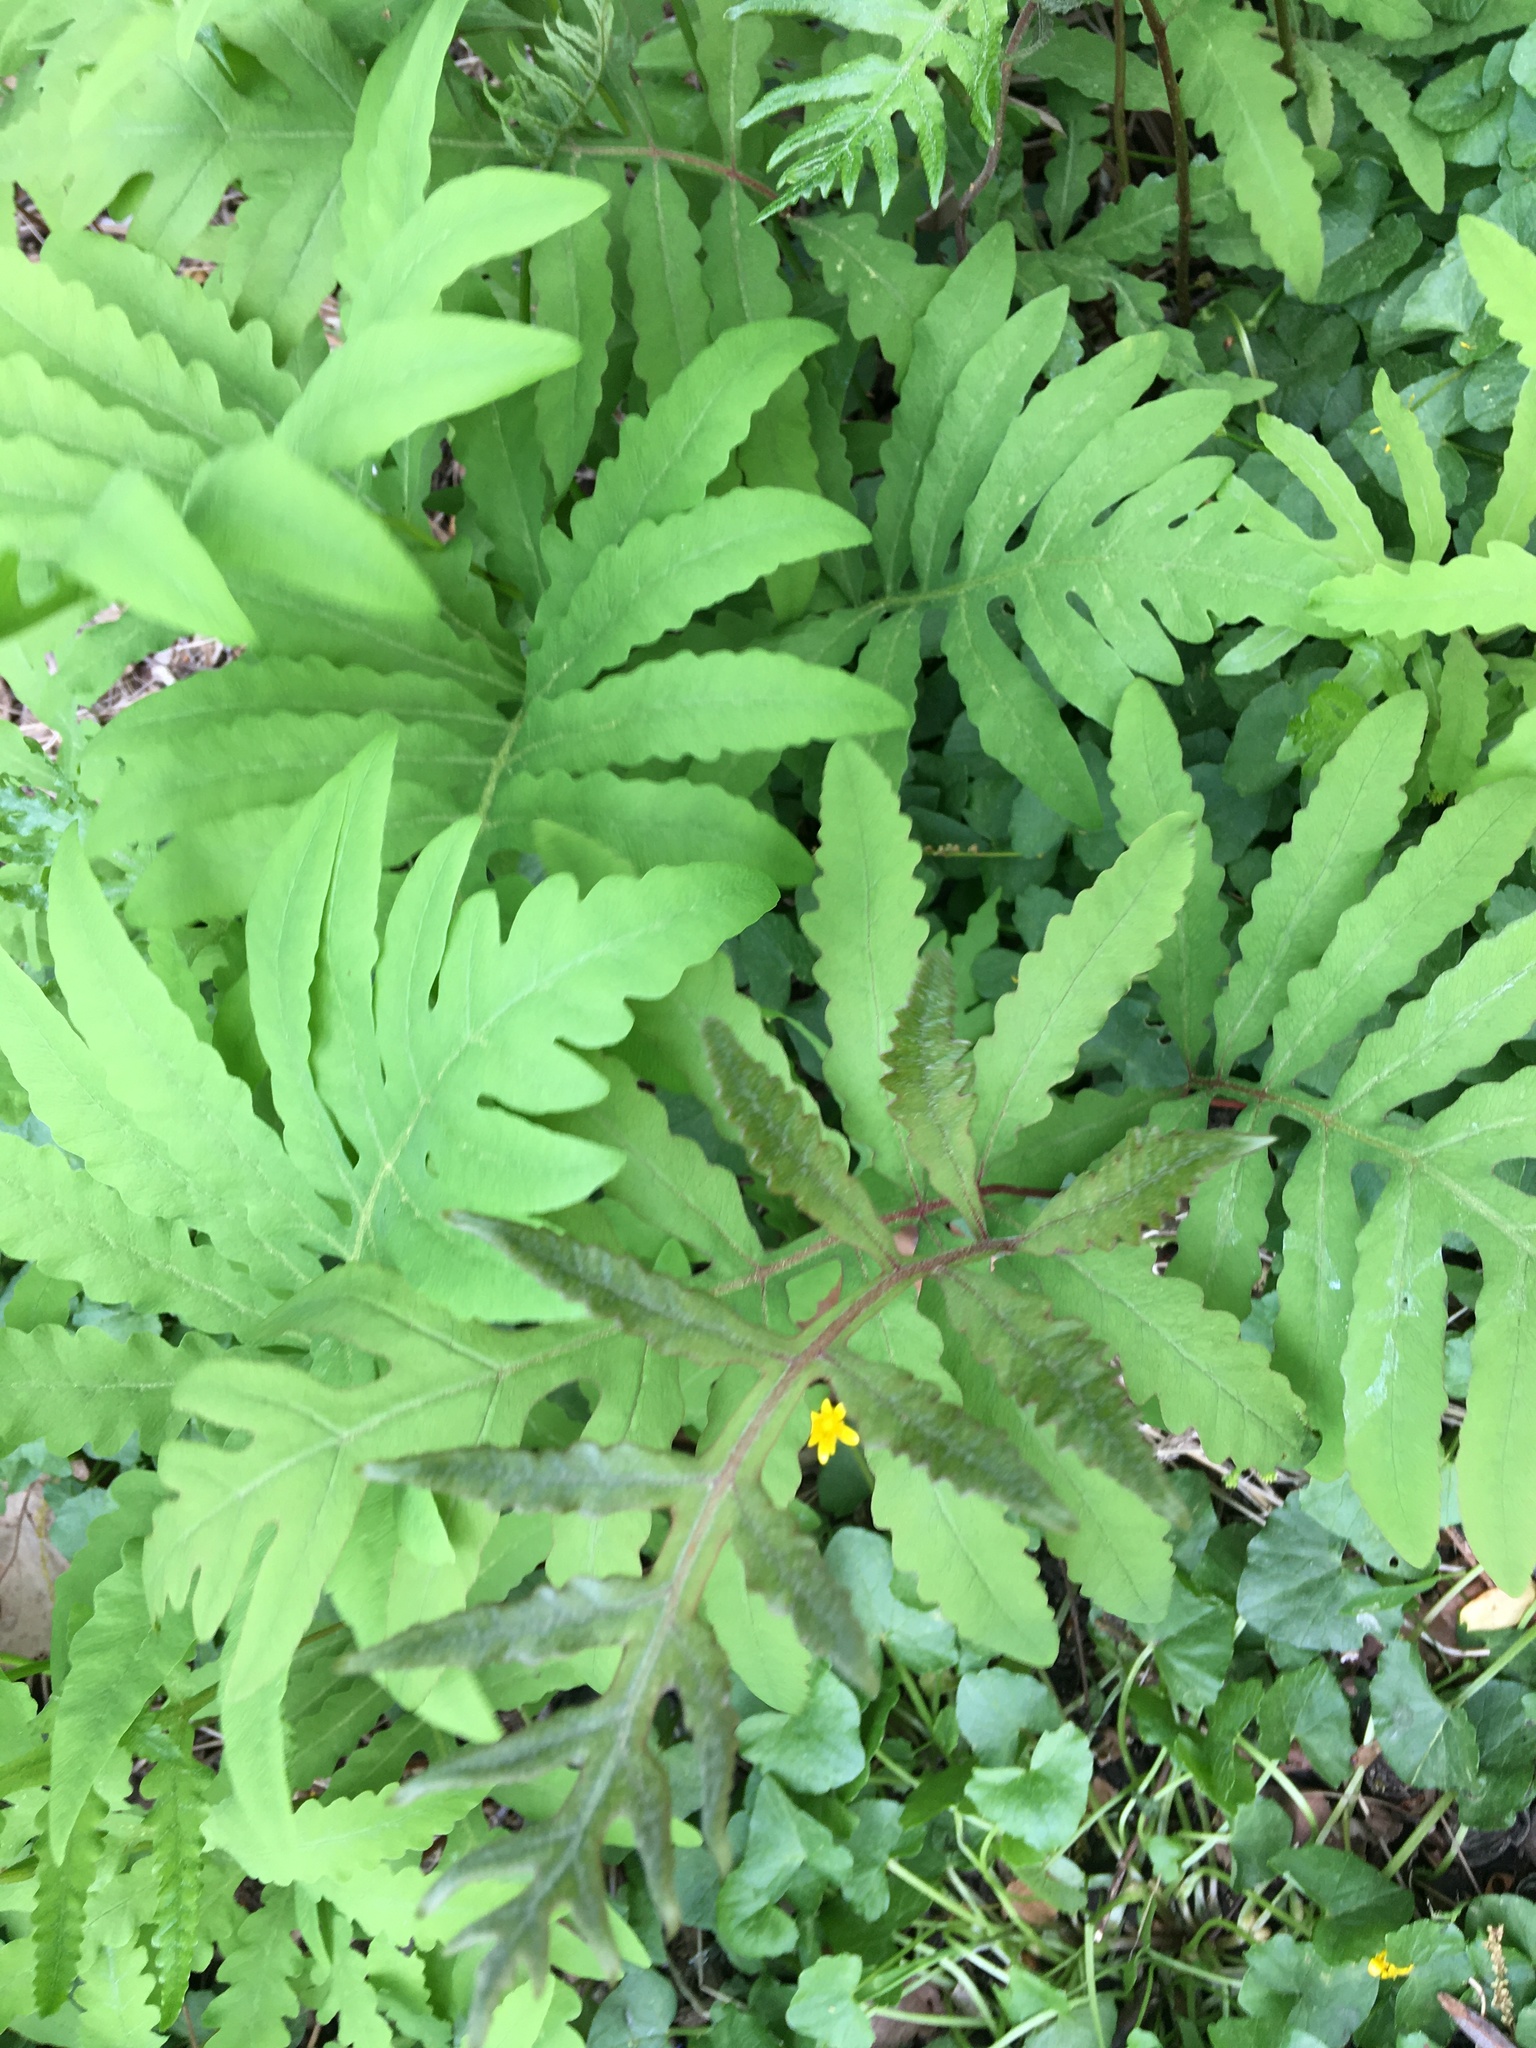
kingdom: Plantae
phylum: Tracheophyta
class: Polypodiopsida
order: Polypodiales
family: Onocleaceae
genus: Onoclea
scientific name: Onoclea sensibilis
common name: Sensitive fern
